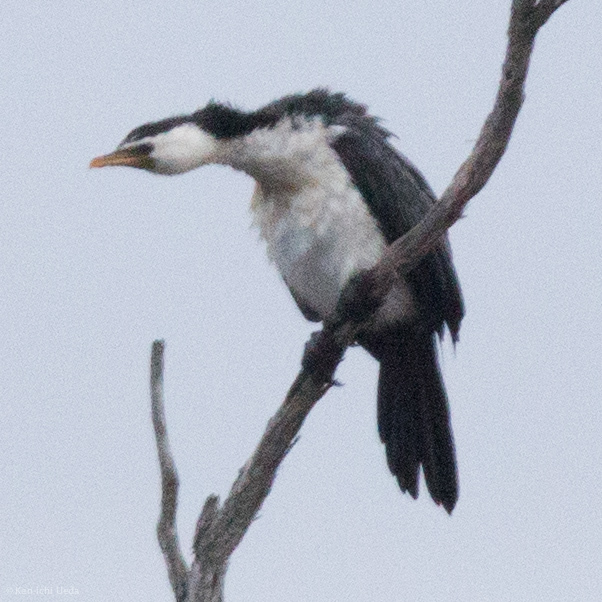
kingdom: Animalia
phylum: Chordata
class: Aves
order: Suliformes
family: Phalacrocoracidae
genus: Microcarbo
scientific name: Microcarbo melanoleucos
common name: Little pied cormorant
